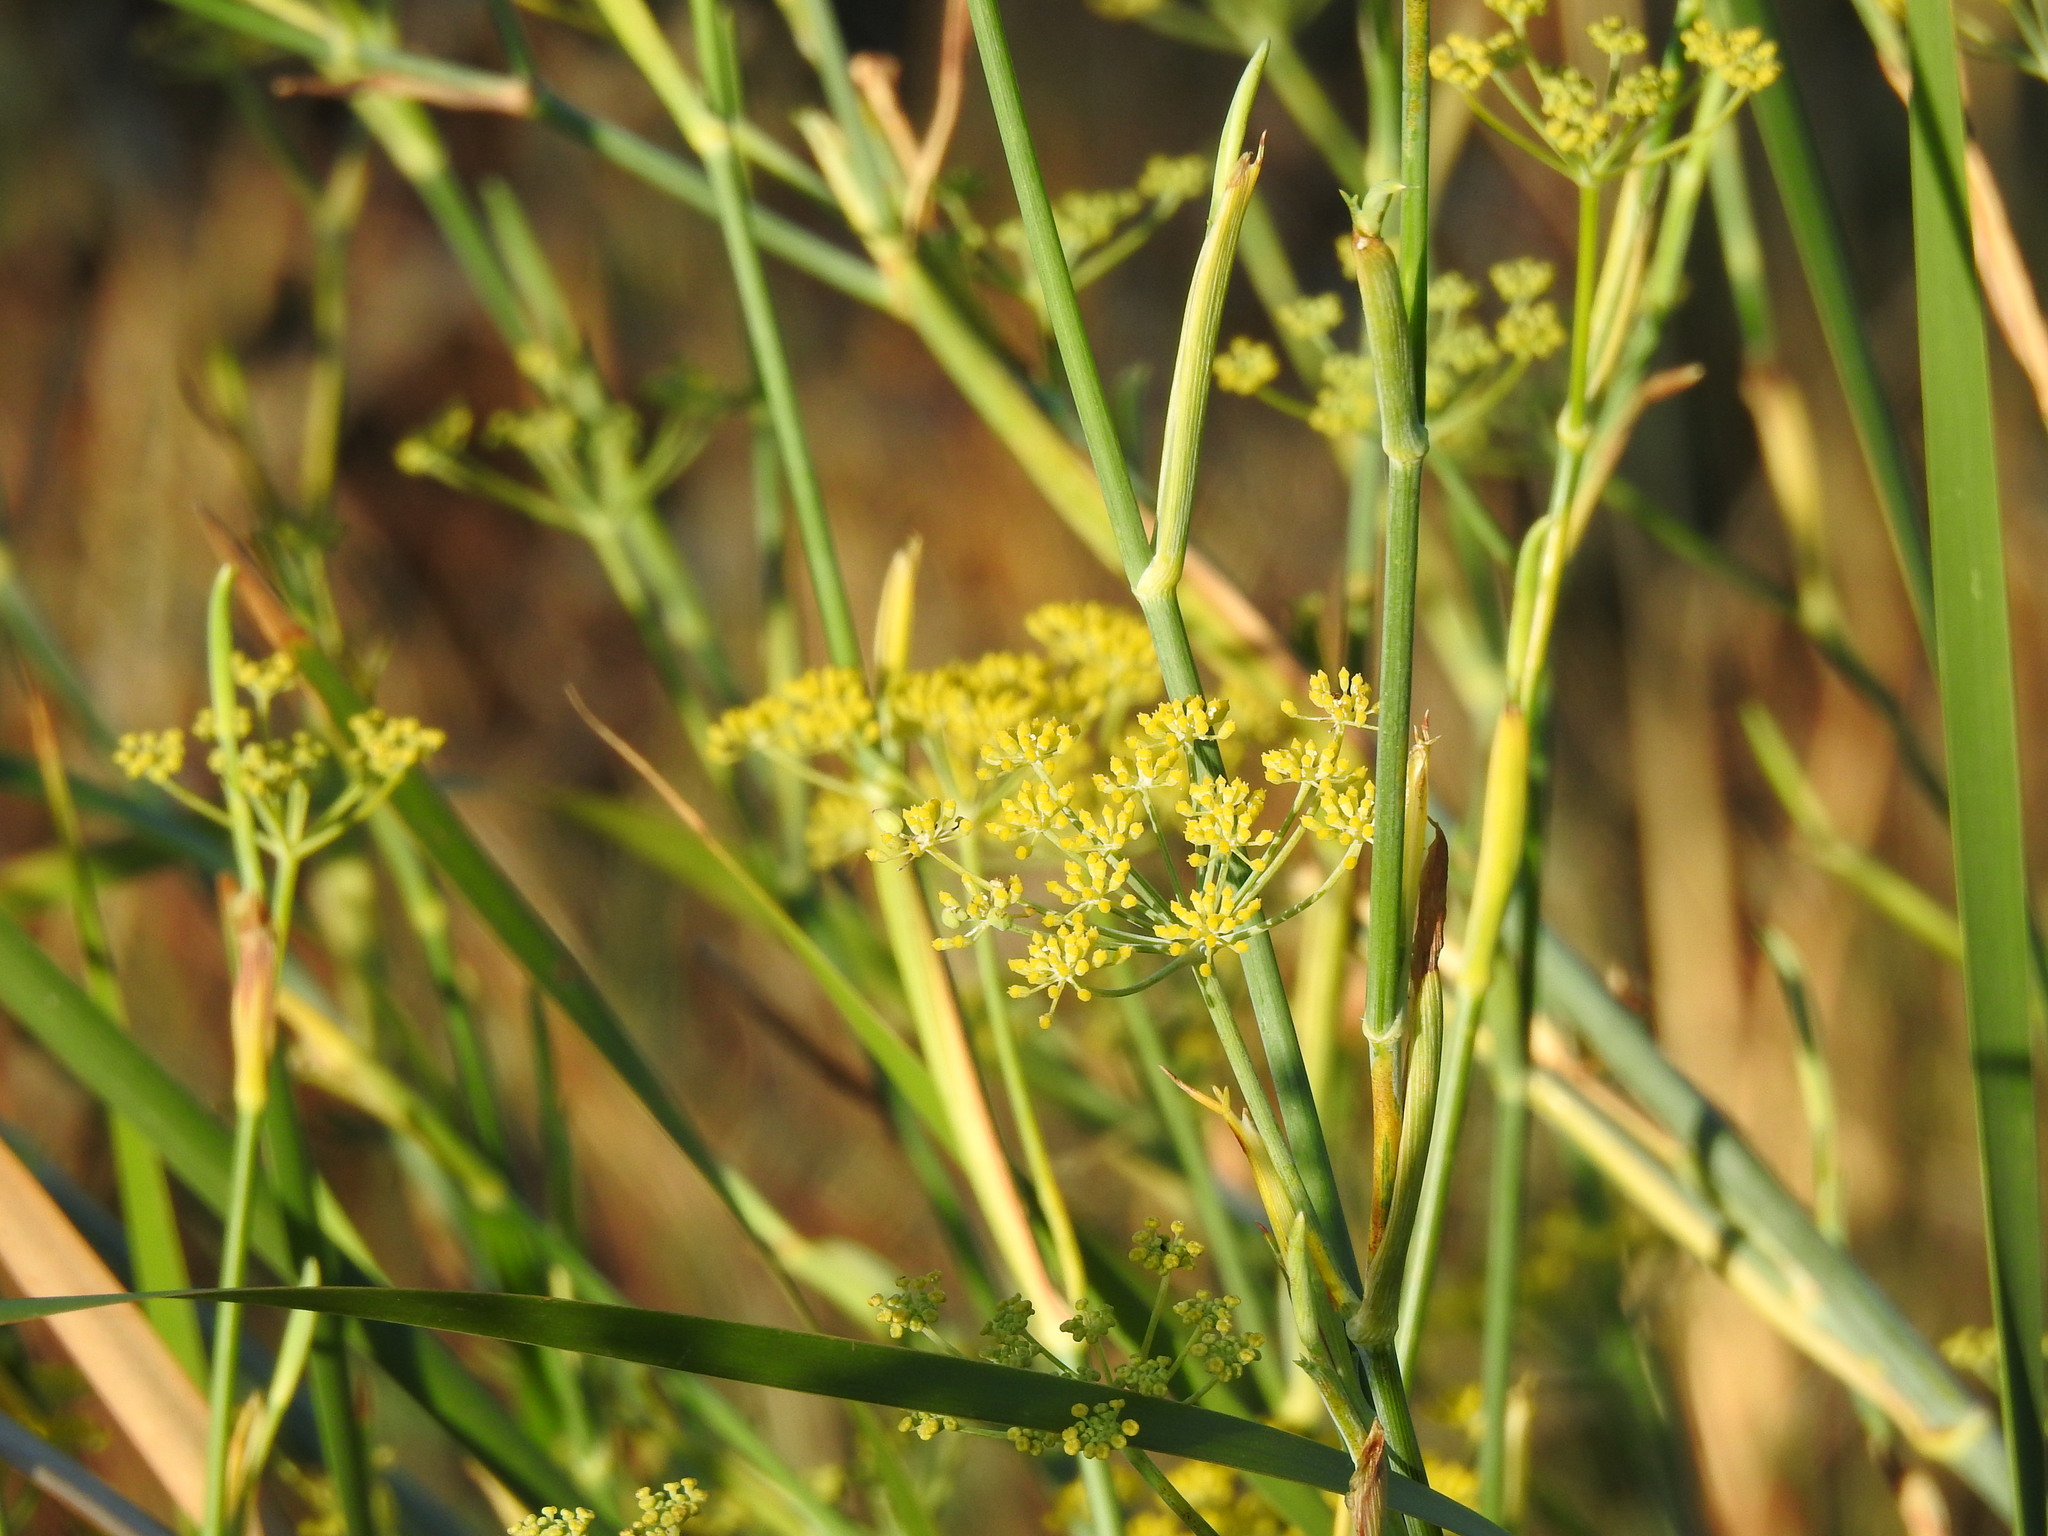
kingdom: Plantae
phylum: Tracheophyta
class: Magnoliopsida
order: Apiales
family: Apiaceae
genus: Foeniculum
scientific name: Foeniculum vulgare
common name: Fennel
